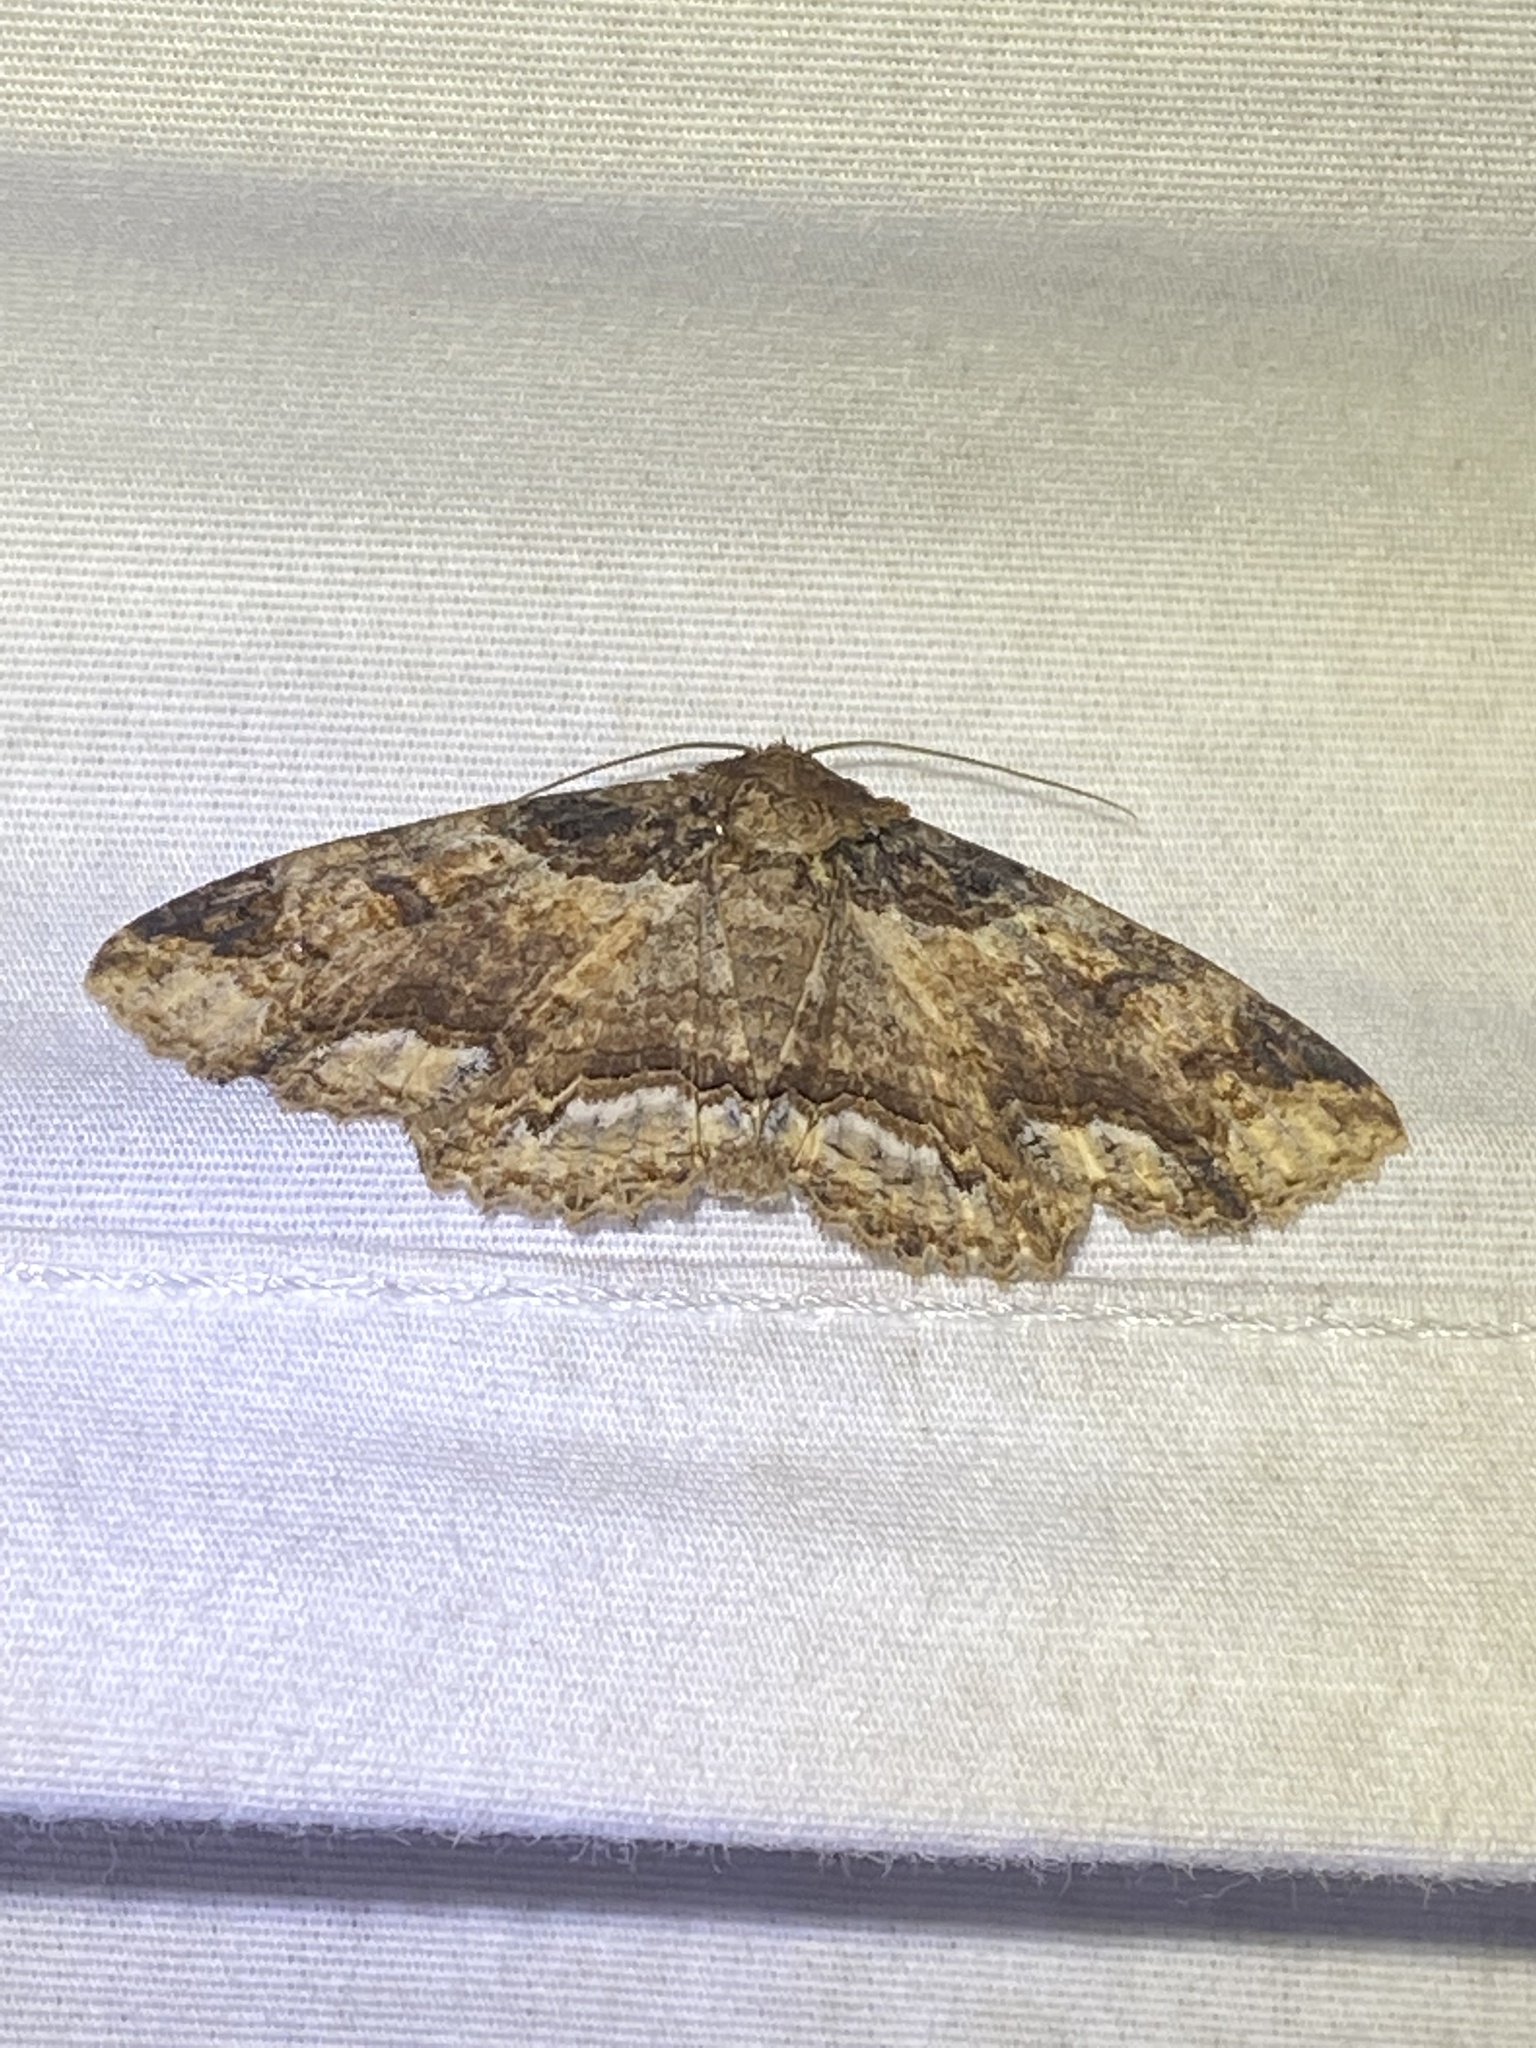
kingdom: Animalia
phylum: Arthropoda
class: Insecta
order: Lepidoptera
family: Erebidae
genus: Zale
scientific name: Zale minerea
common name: Colorful zale moth
